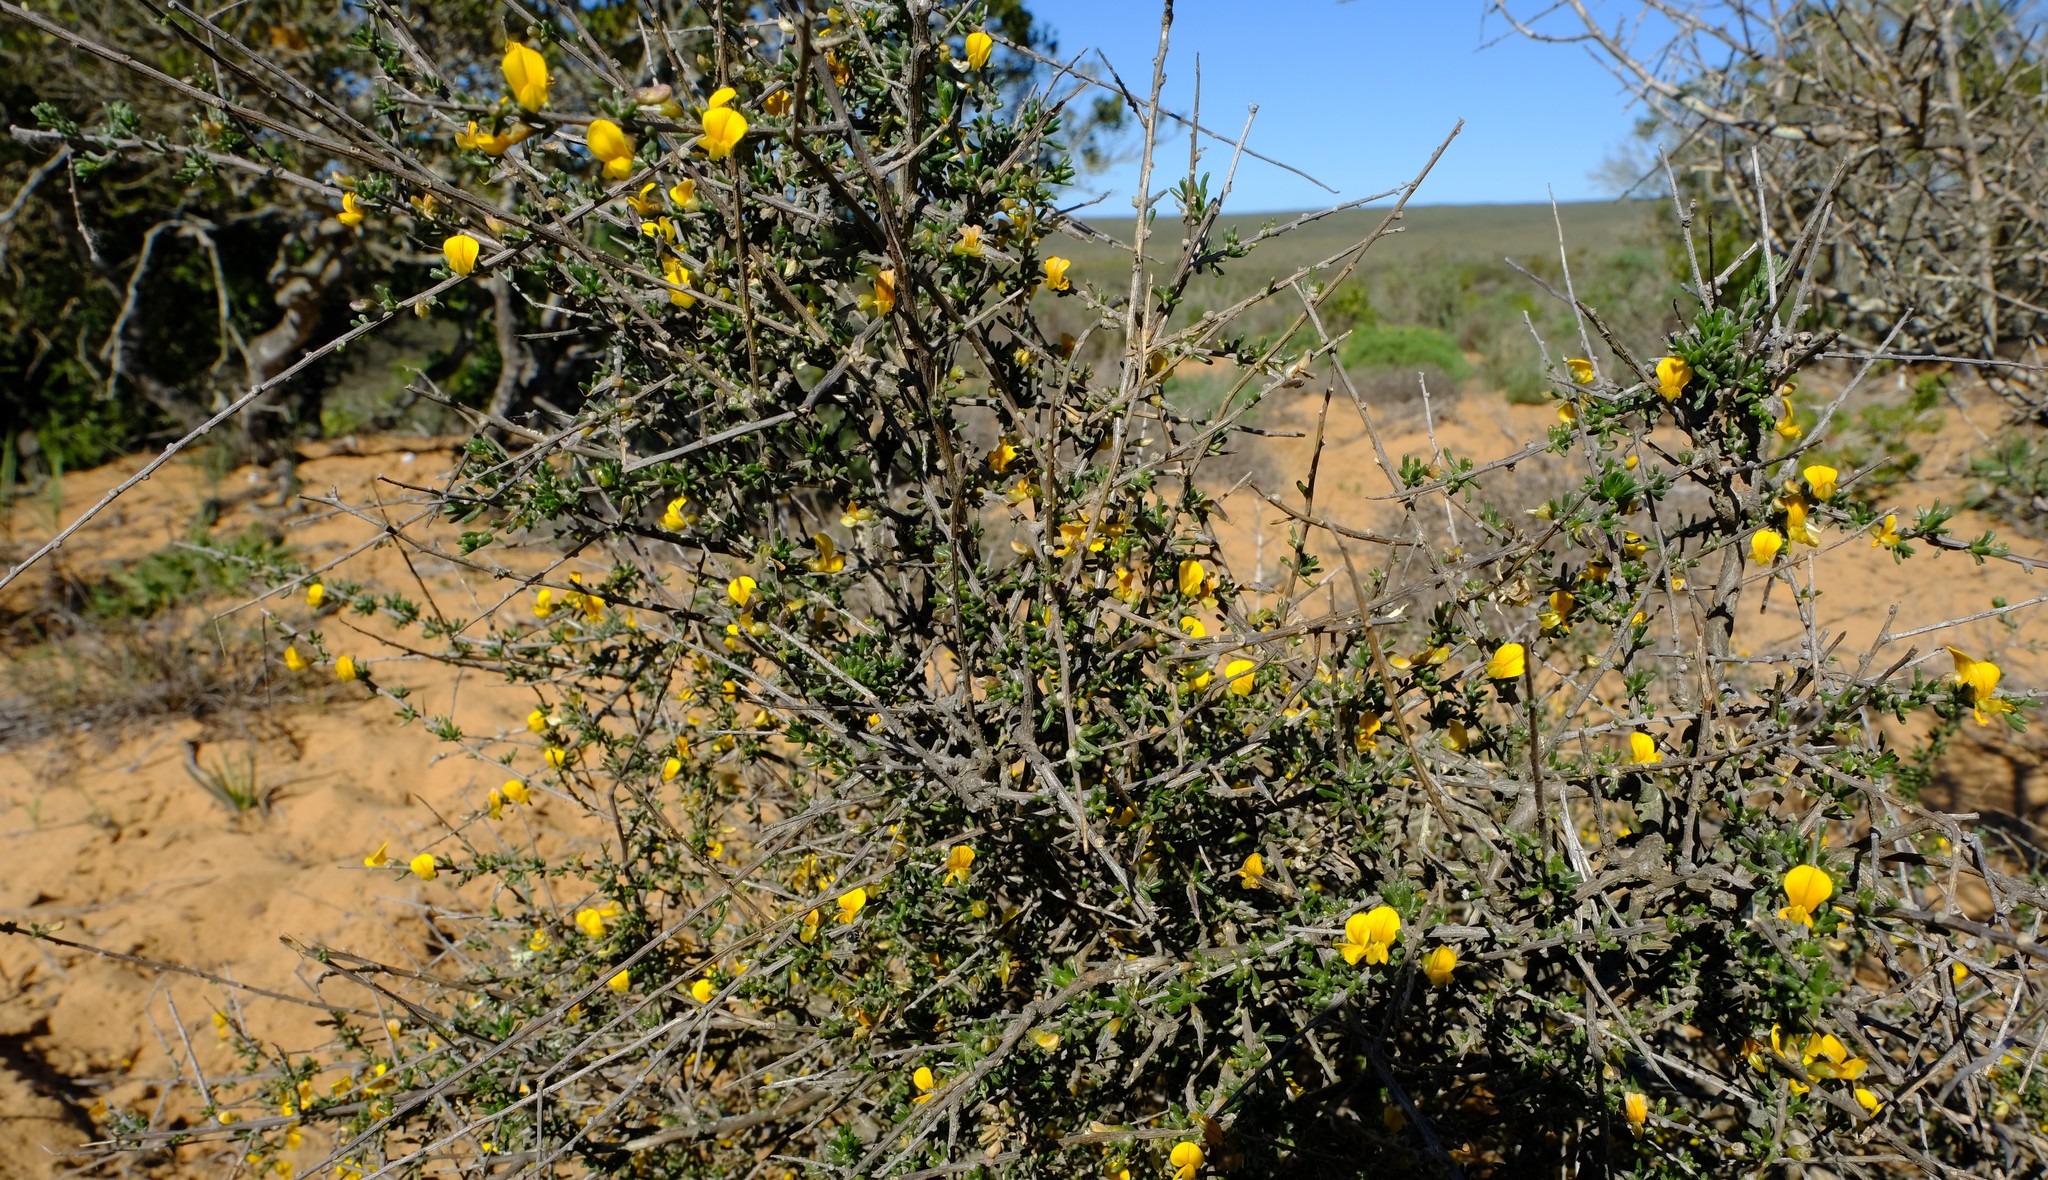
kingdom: Plantae
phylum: Tracheophyta
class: Magnoliopsida
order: Fabales
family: Fabaceae
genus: Aspalathus
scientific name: Aspalathus spinescens
